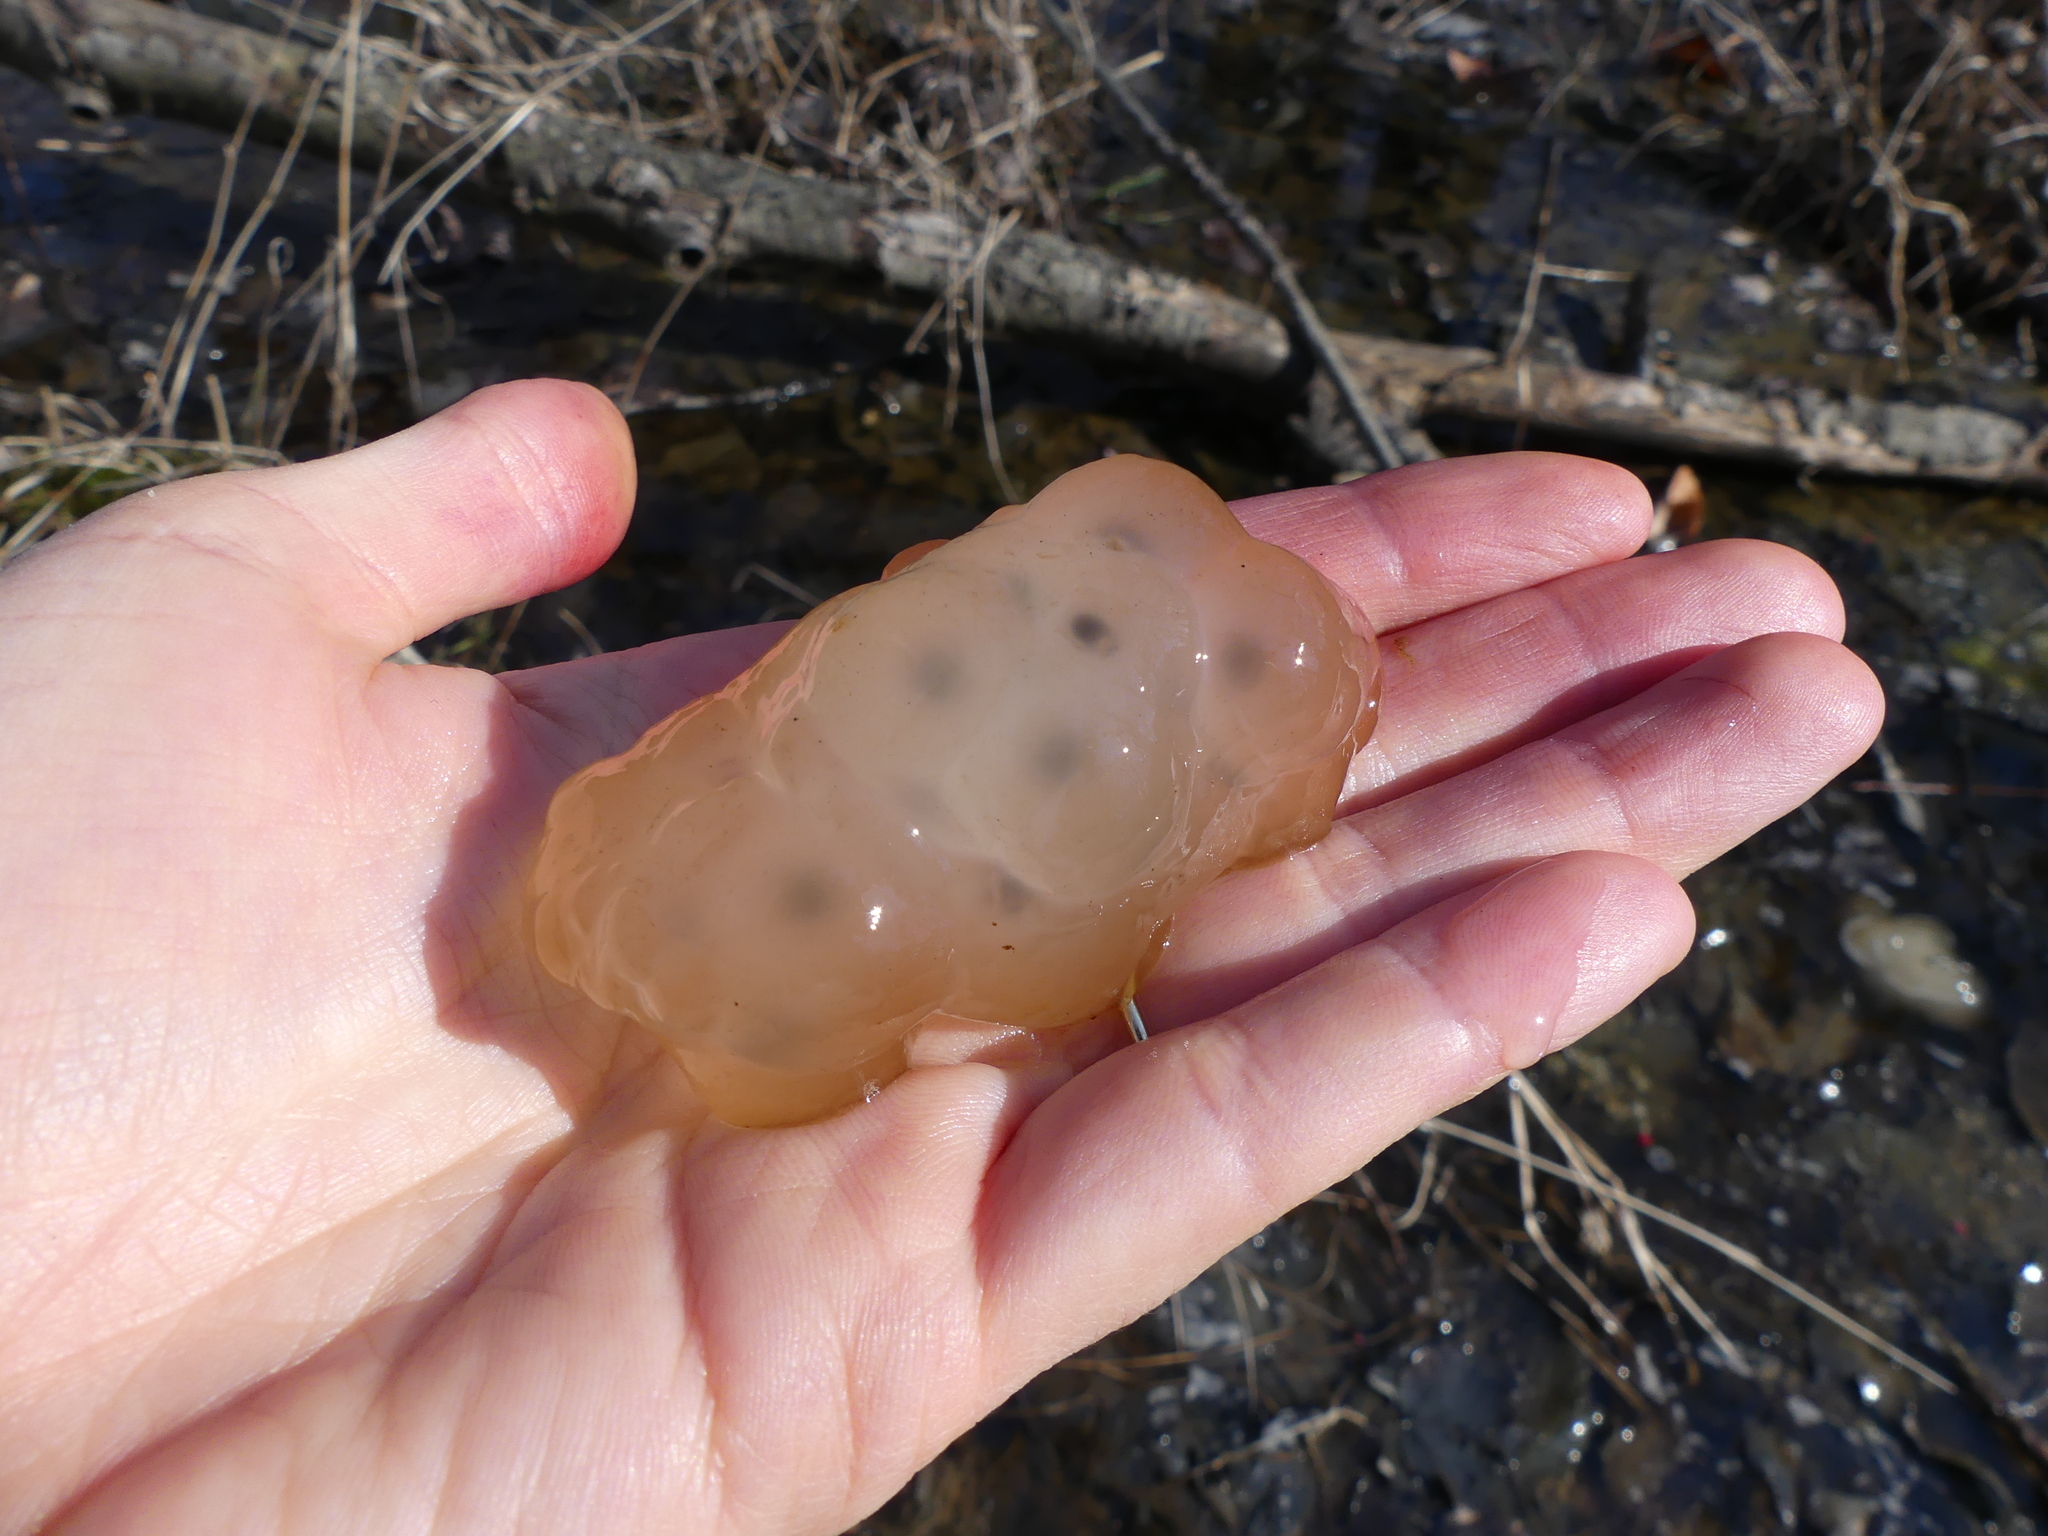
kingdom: Animalia
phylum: Chordata
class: Amphibia
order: Caudata
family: Ambystomatidae
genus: Ambystoma
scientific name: Ambystoma maculatum
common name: Spotted salamander
